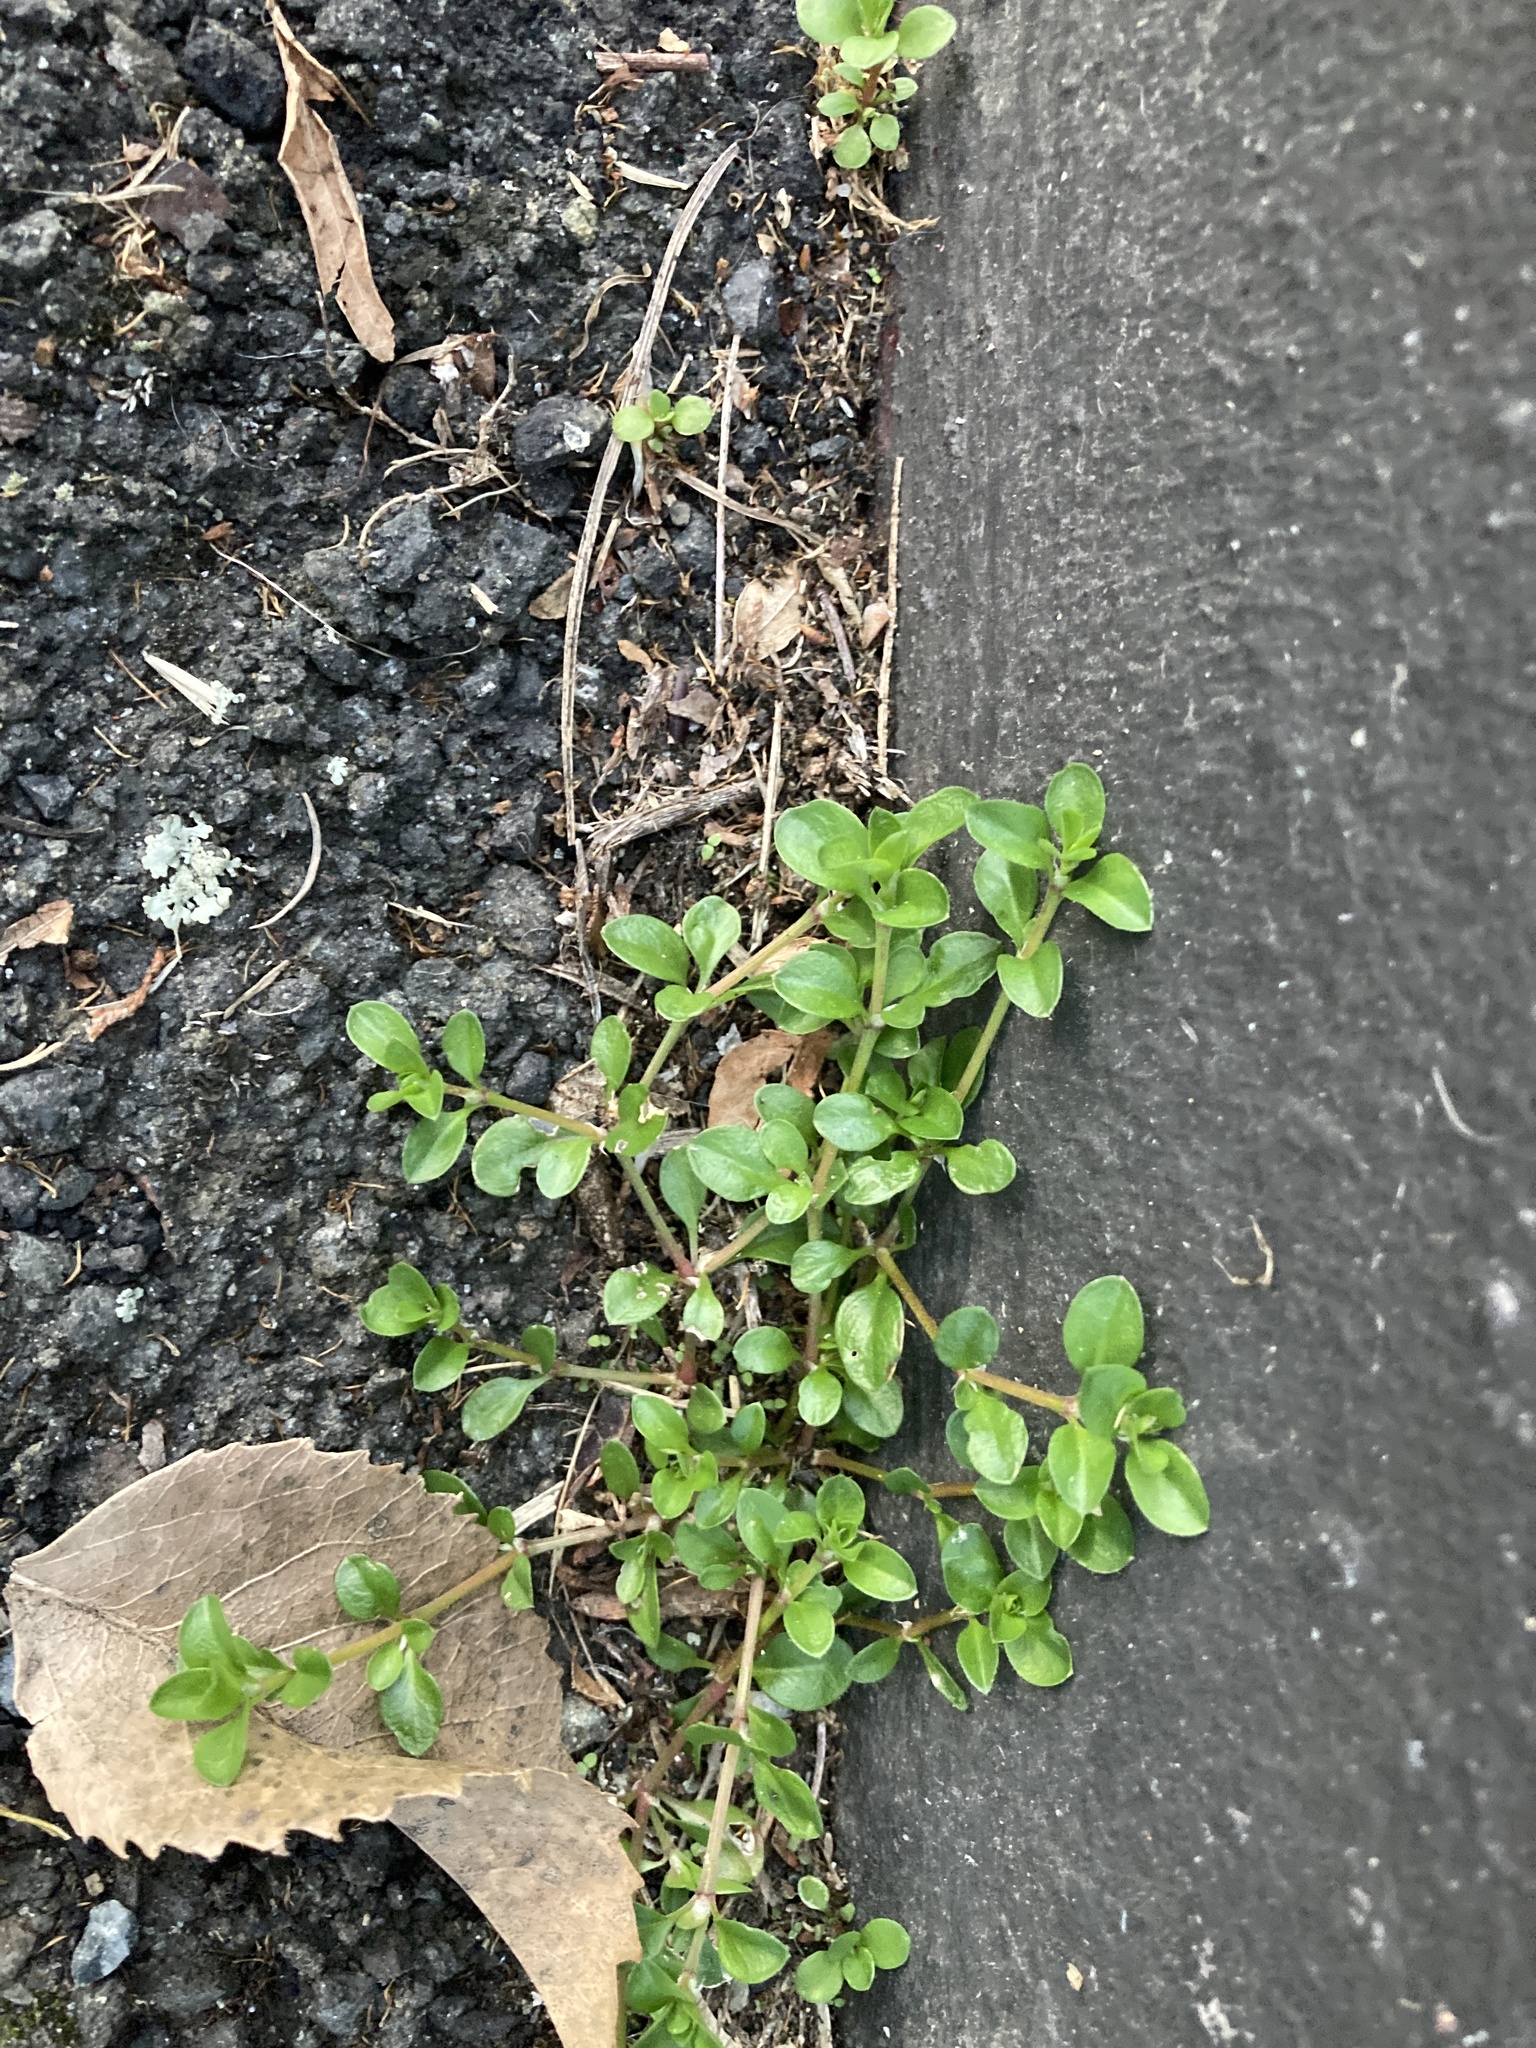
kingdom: Plantae
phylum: Tracheophyta
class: Magnoliopsida
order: Caryophyllales
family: Caryophyllaceae
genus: Stellaria
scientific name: Stellaria media
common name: Common chickweed
